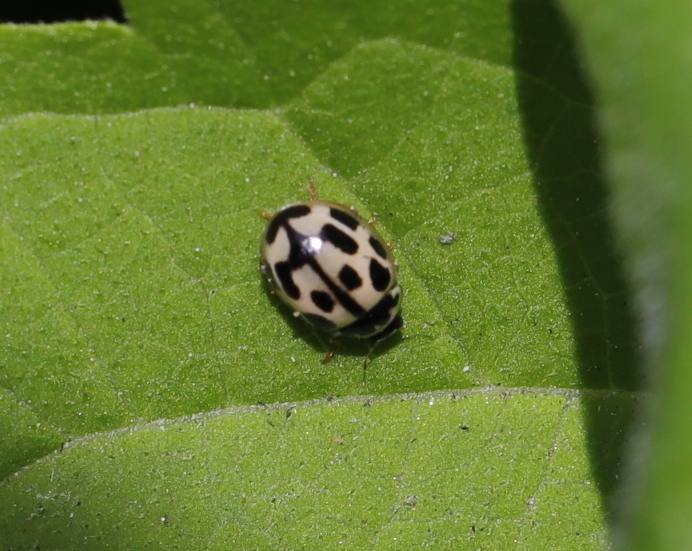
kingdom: Animalia
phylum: Arthropoda
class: Insecta
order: Coleoptera
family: Coccinellidae
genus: Propylaea
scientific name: Propylaea quatuordecimpunctata
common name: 14-spotted ladybird beetle
